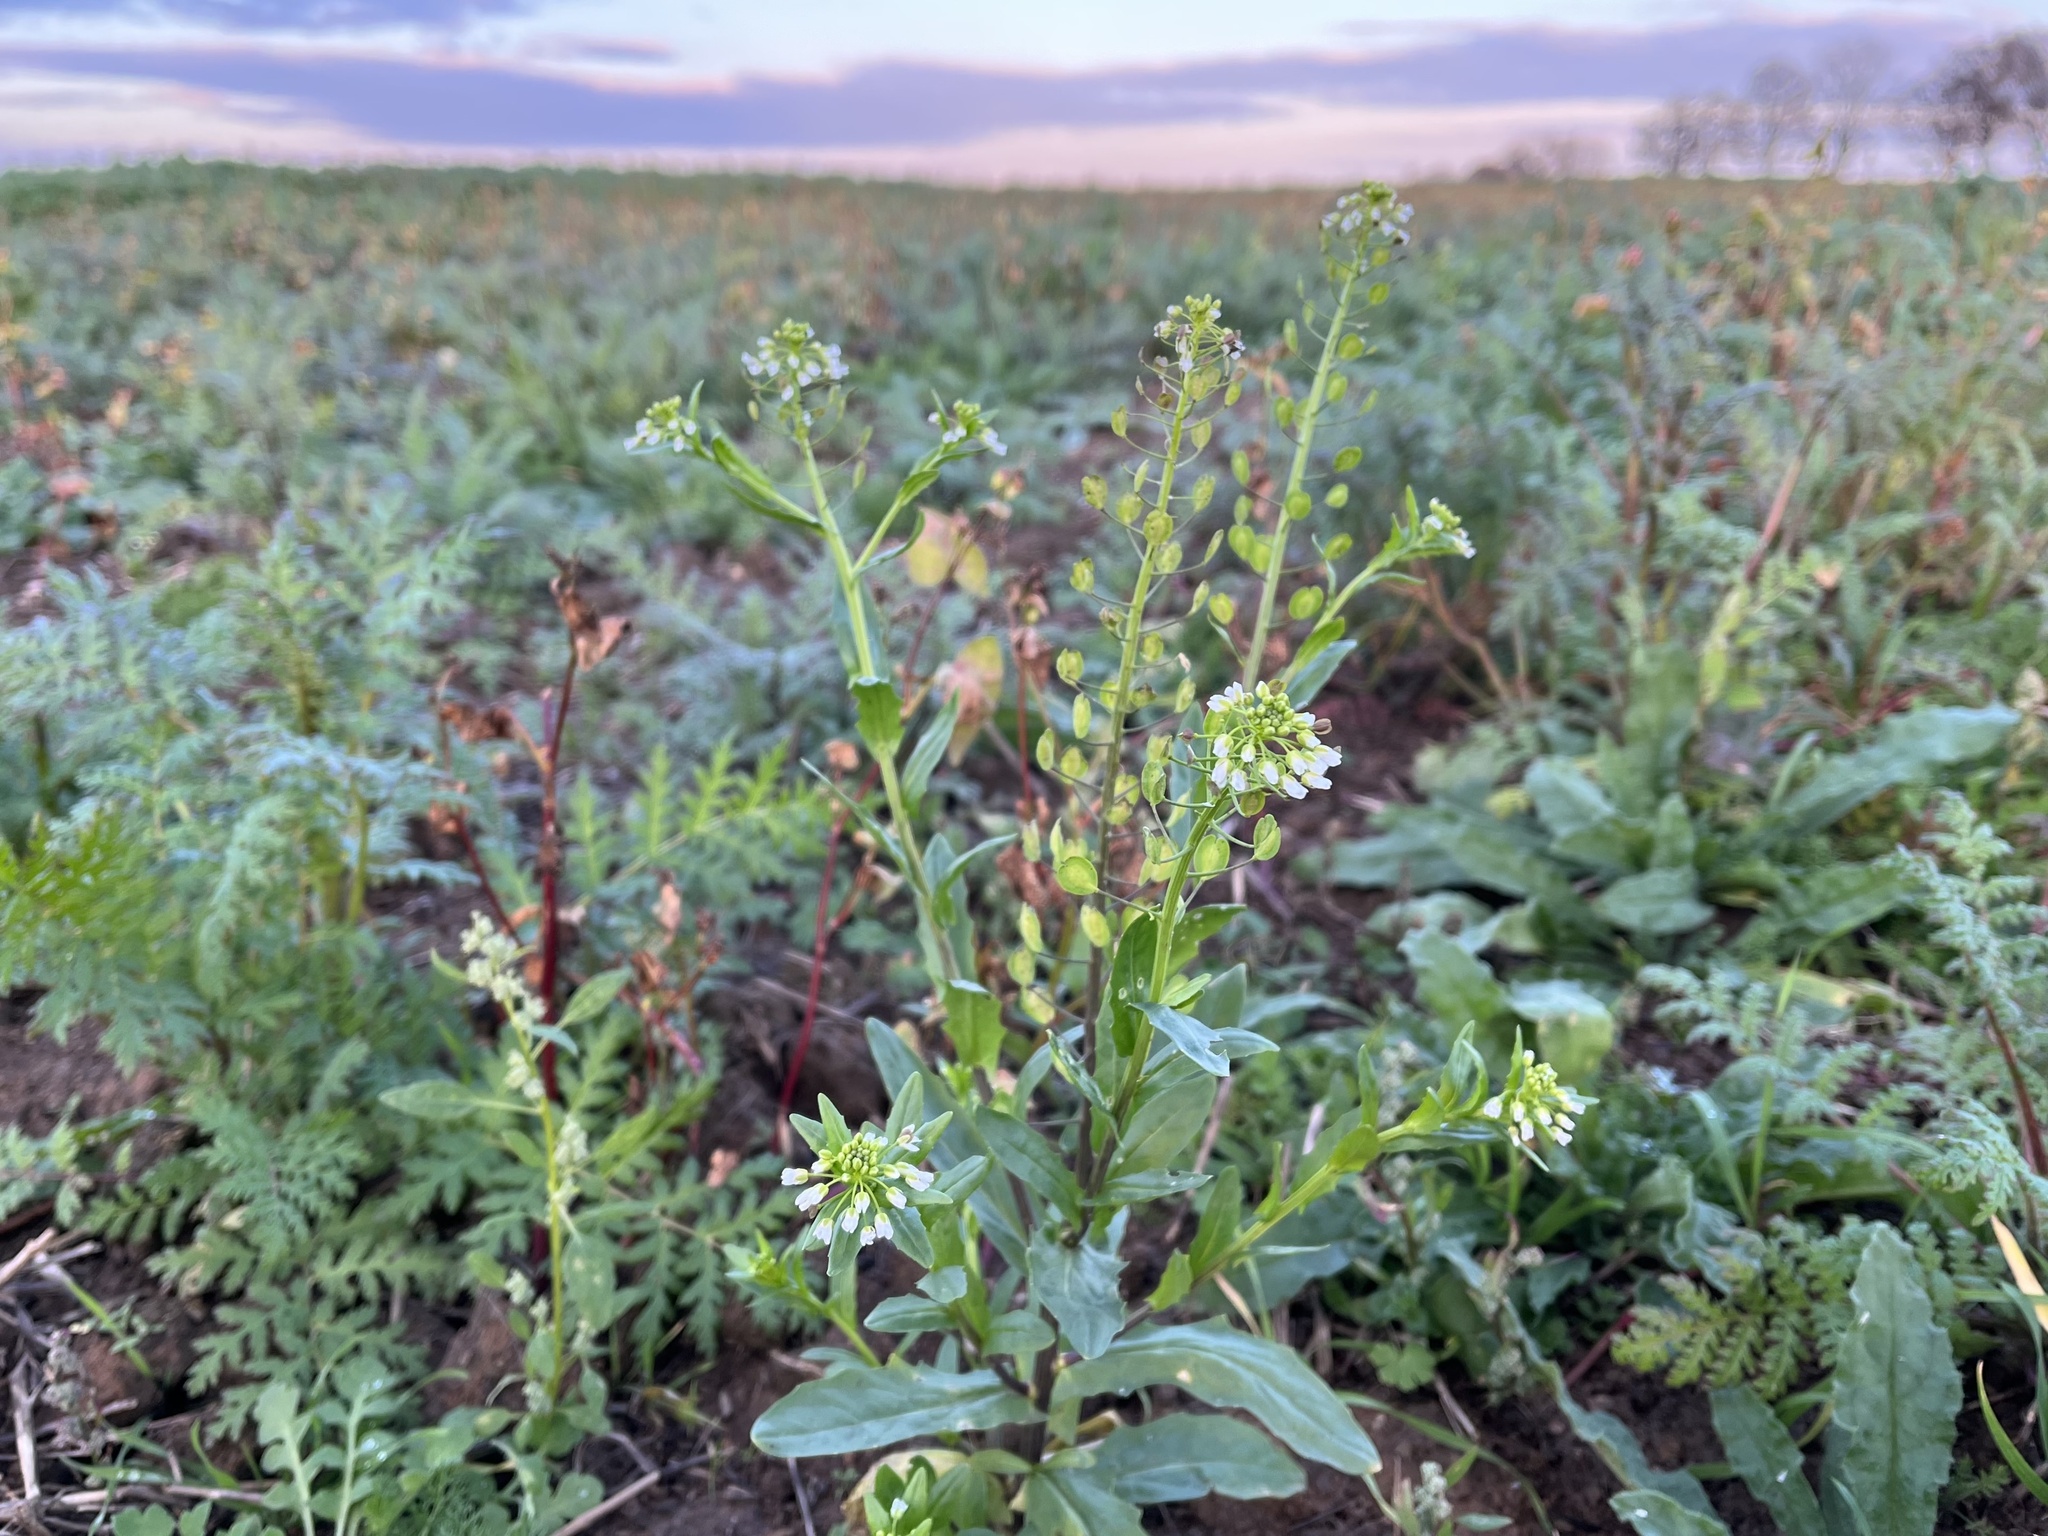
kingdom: Plantae
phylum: Tracheophyta
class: Magnoliopsida
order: Brassicales
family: Brassicaceae
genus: Thlaspi
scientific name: Thlaspi arvense
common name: Field pennycress
